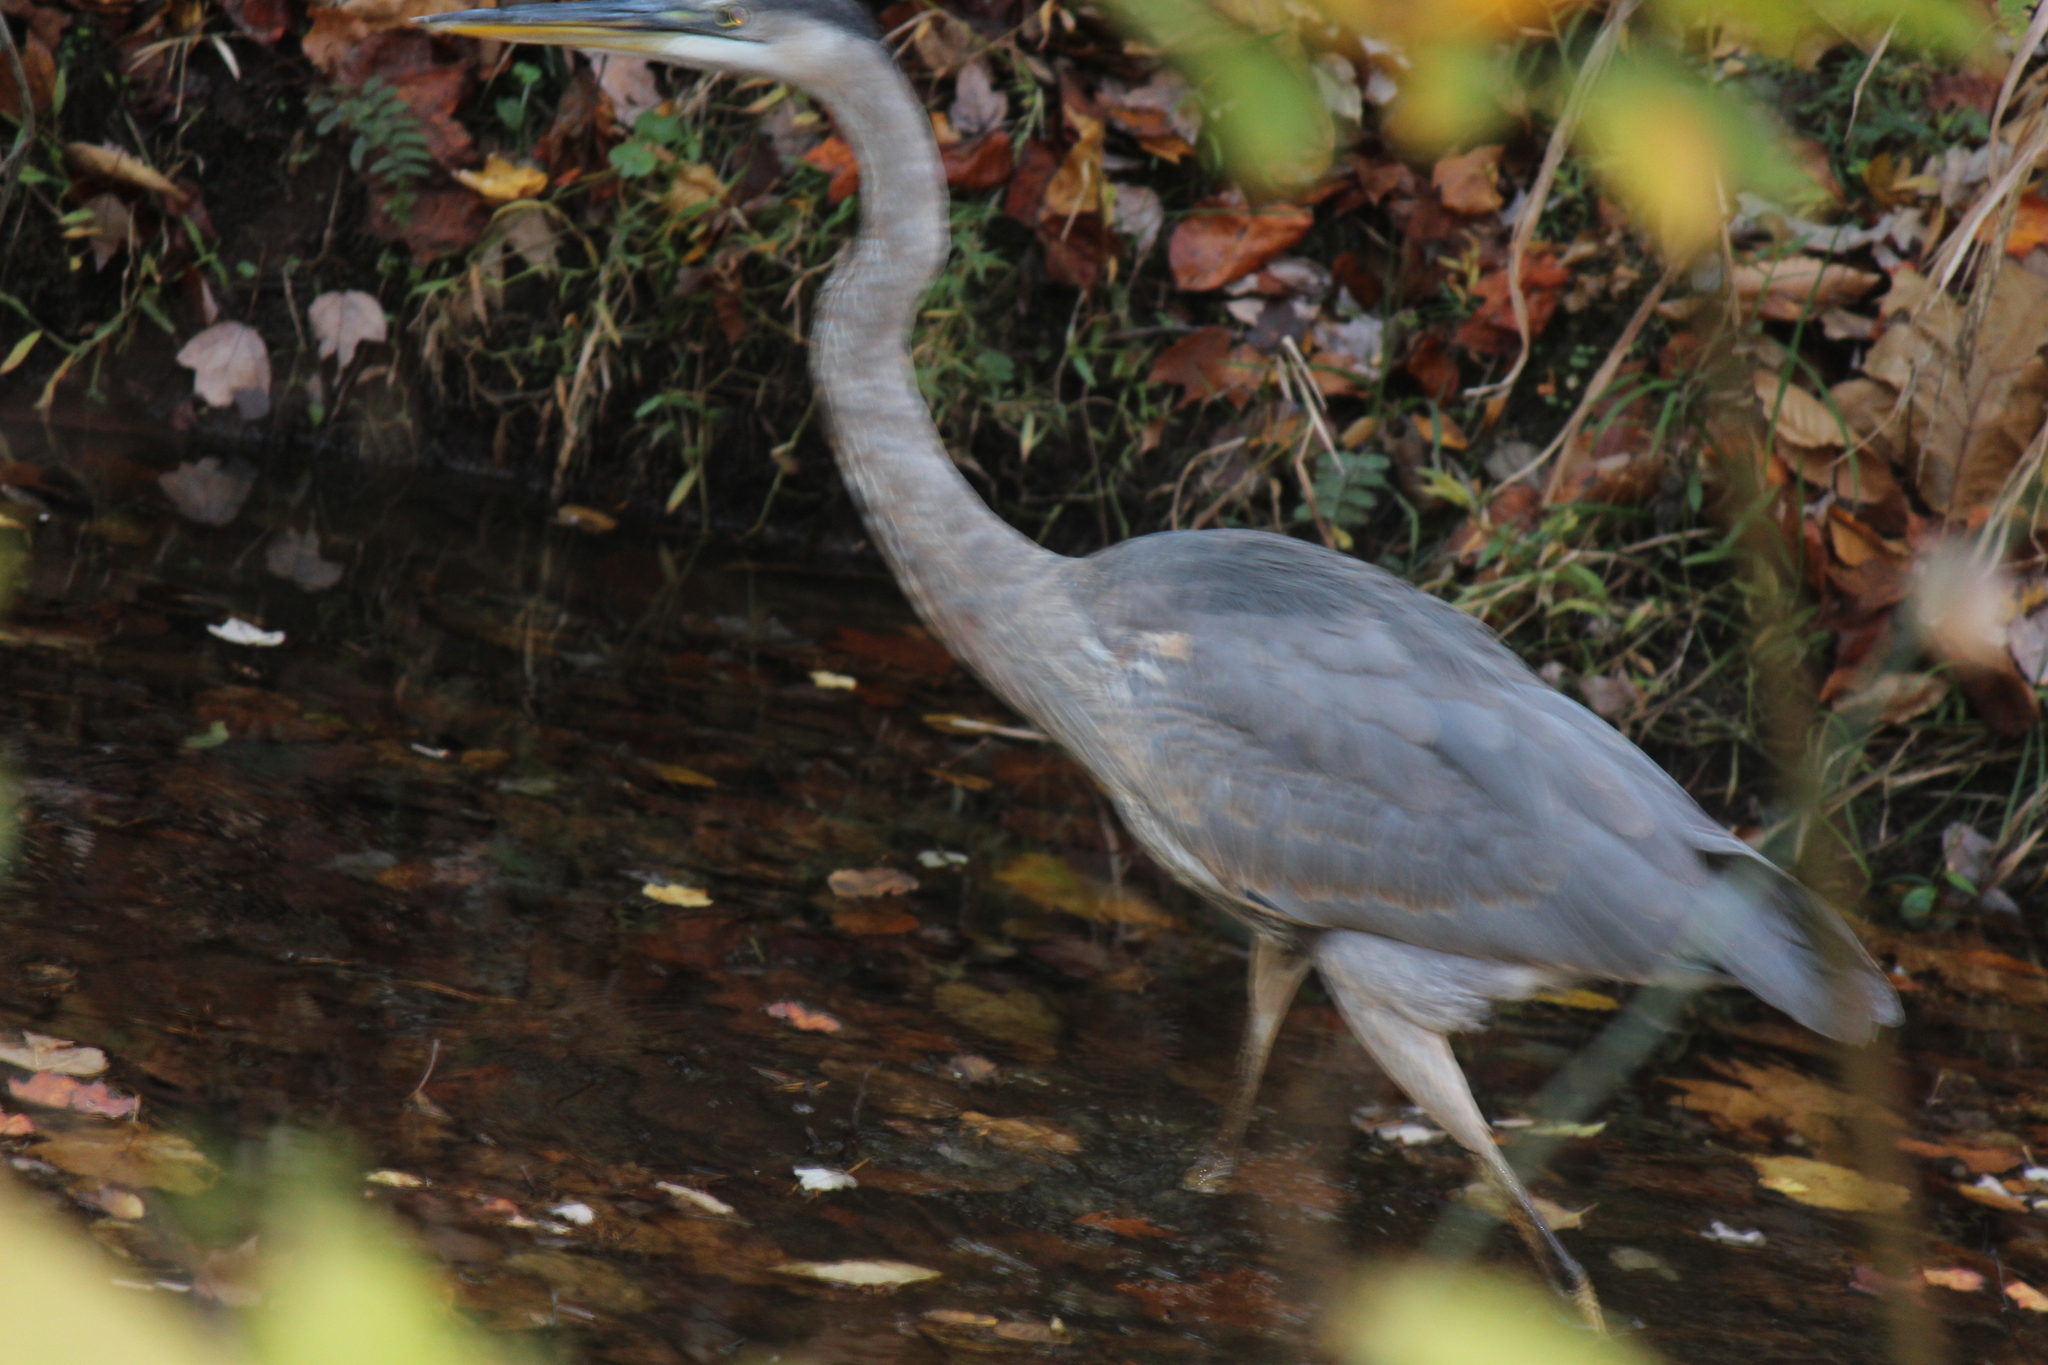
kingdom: Animalia
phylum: Chordata
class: Aves
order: Pelecaniformes
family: Ardeidae
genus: Ardea
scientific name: Ardea herodias
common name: Great blue heron
